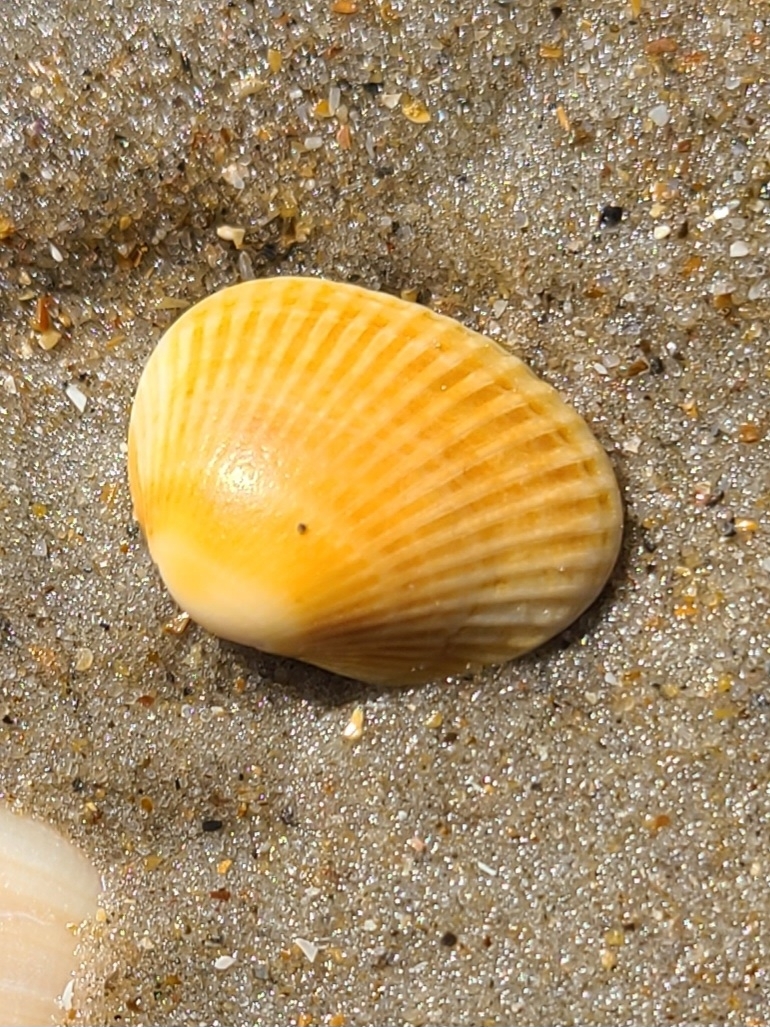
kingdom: Animalia
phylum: Mollusca
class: Bivalvia
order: Arcida
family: Noetiidae
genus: Noetia
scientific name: Noetia ponderosa
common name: Ponderous ark
